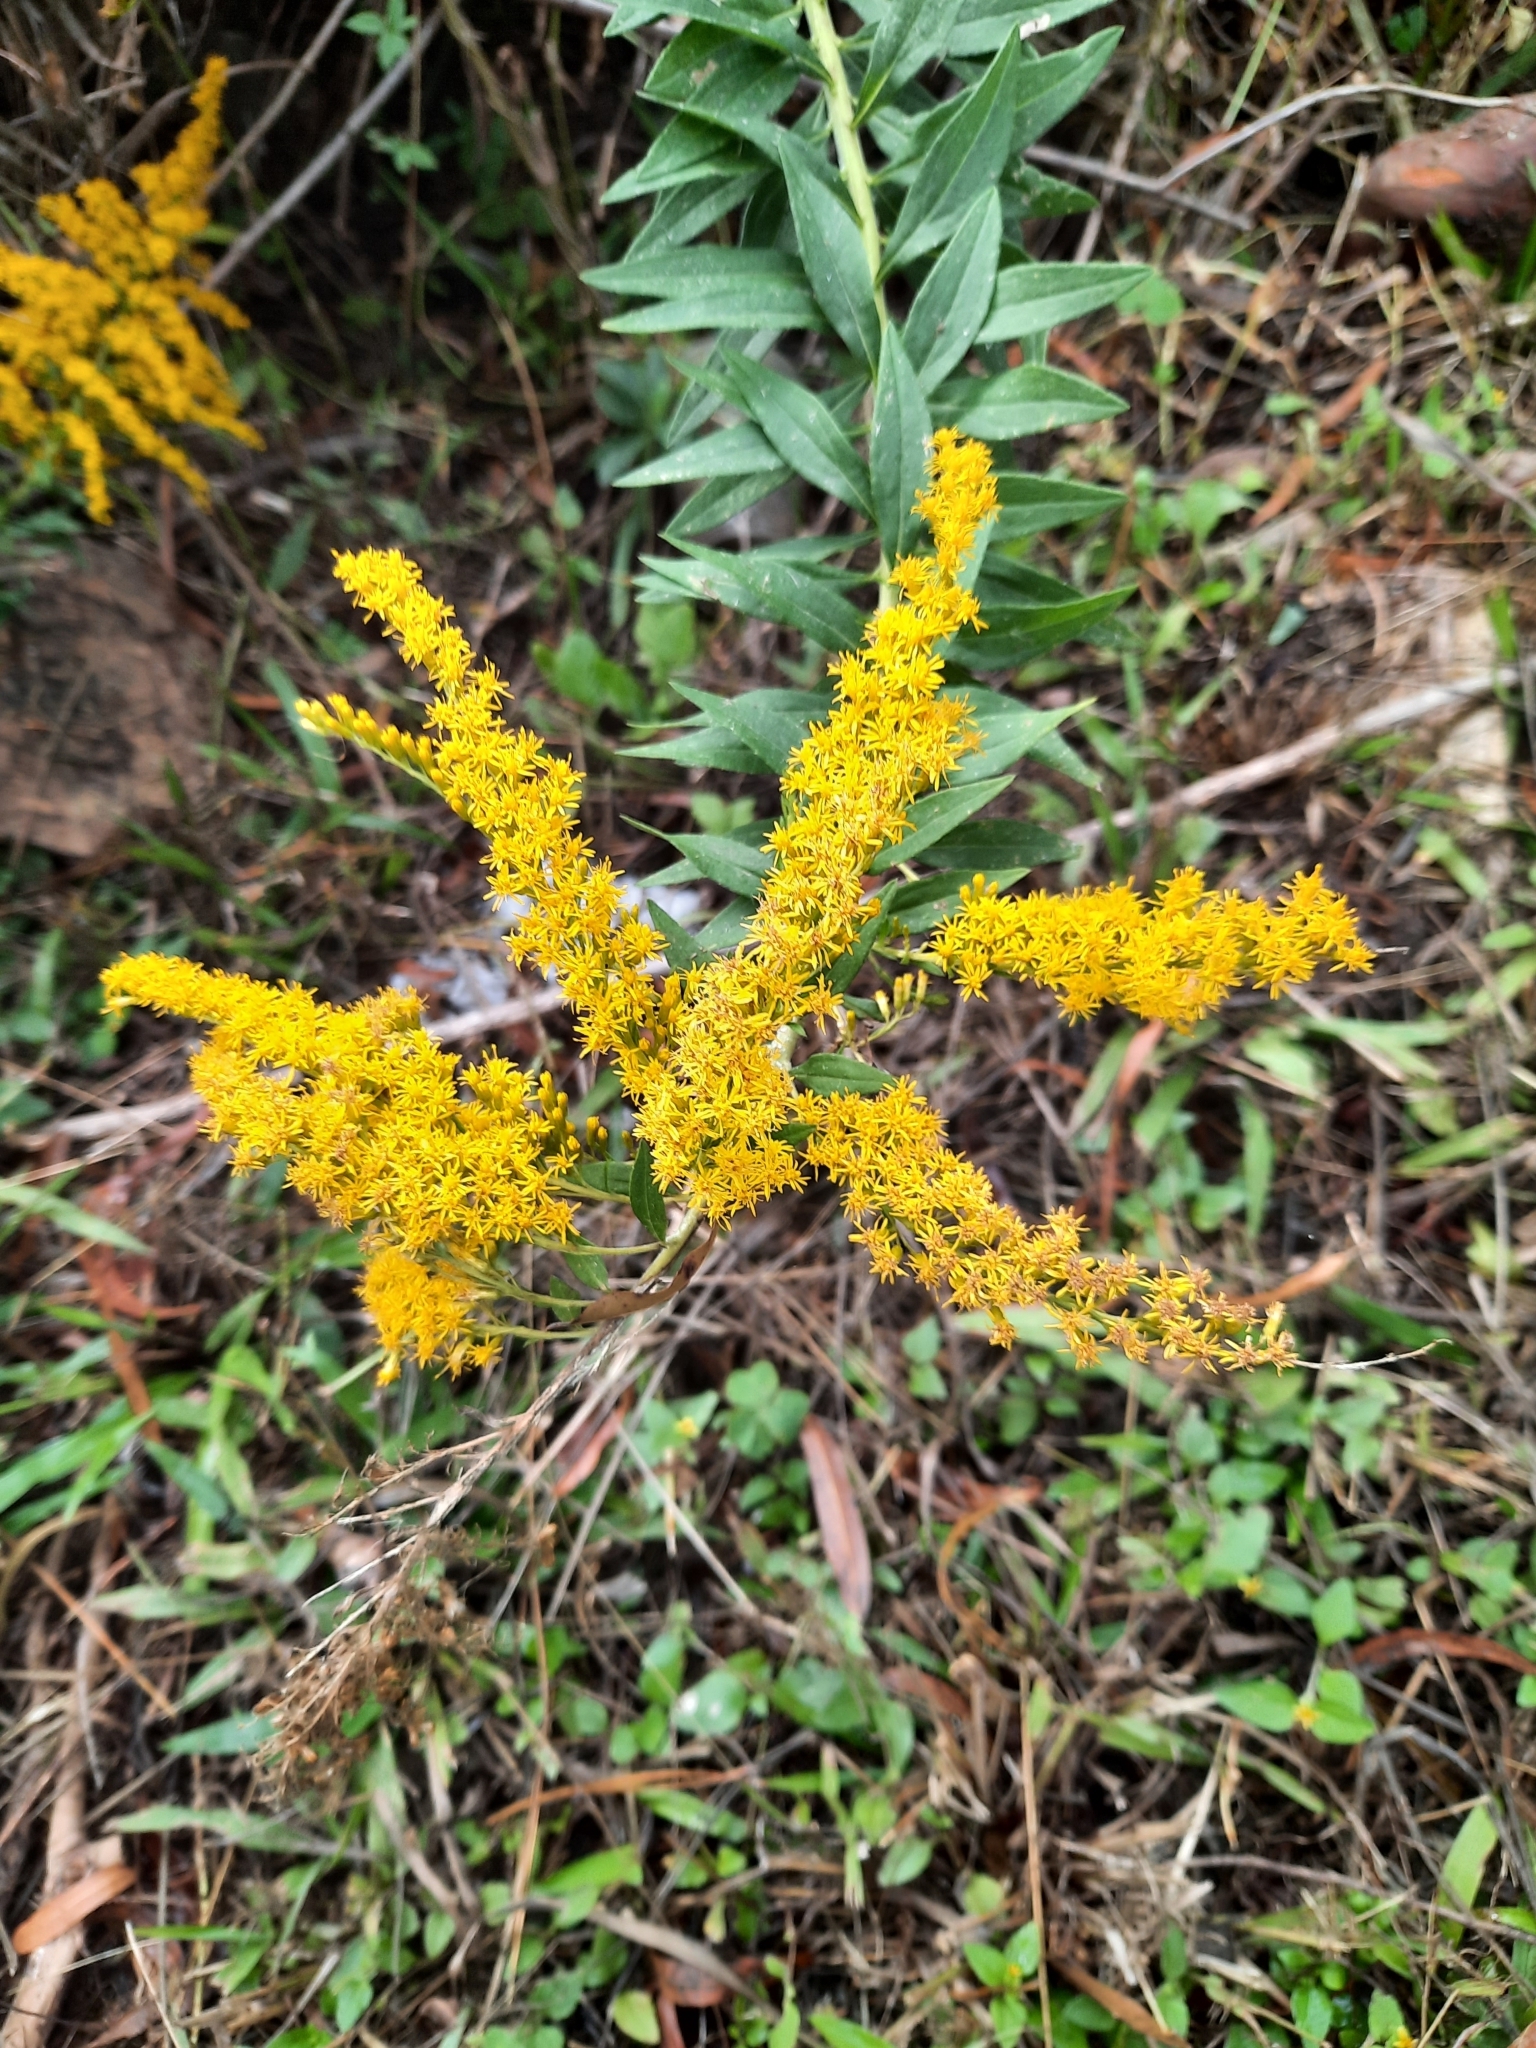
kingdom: Plantae
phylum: Tracheophyta
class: Magnoliopsida
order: Asterales
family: Asteraceae
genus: Solidago
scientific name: Solidago altissima
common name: Late goldenrod
